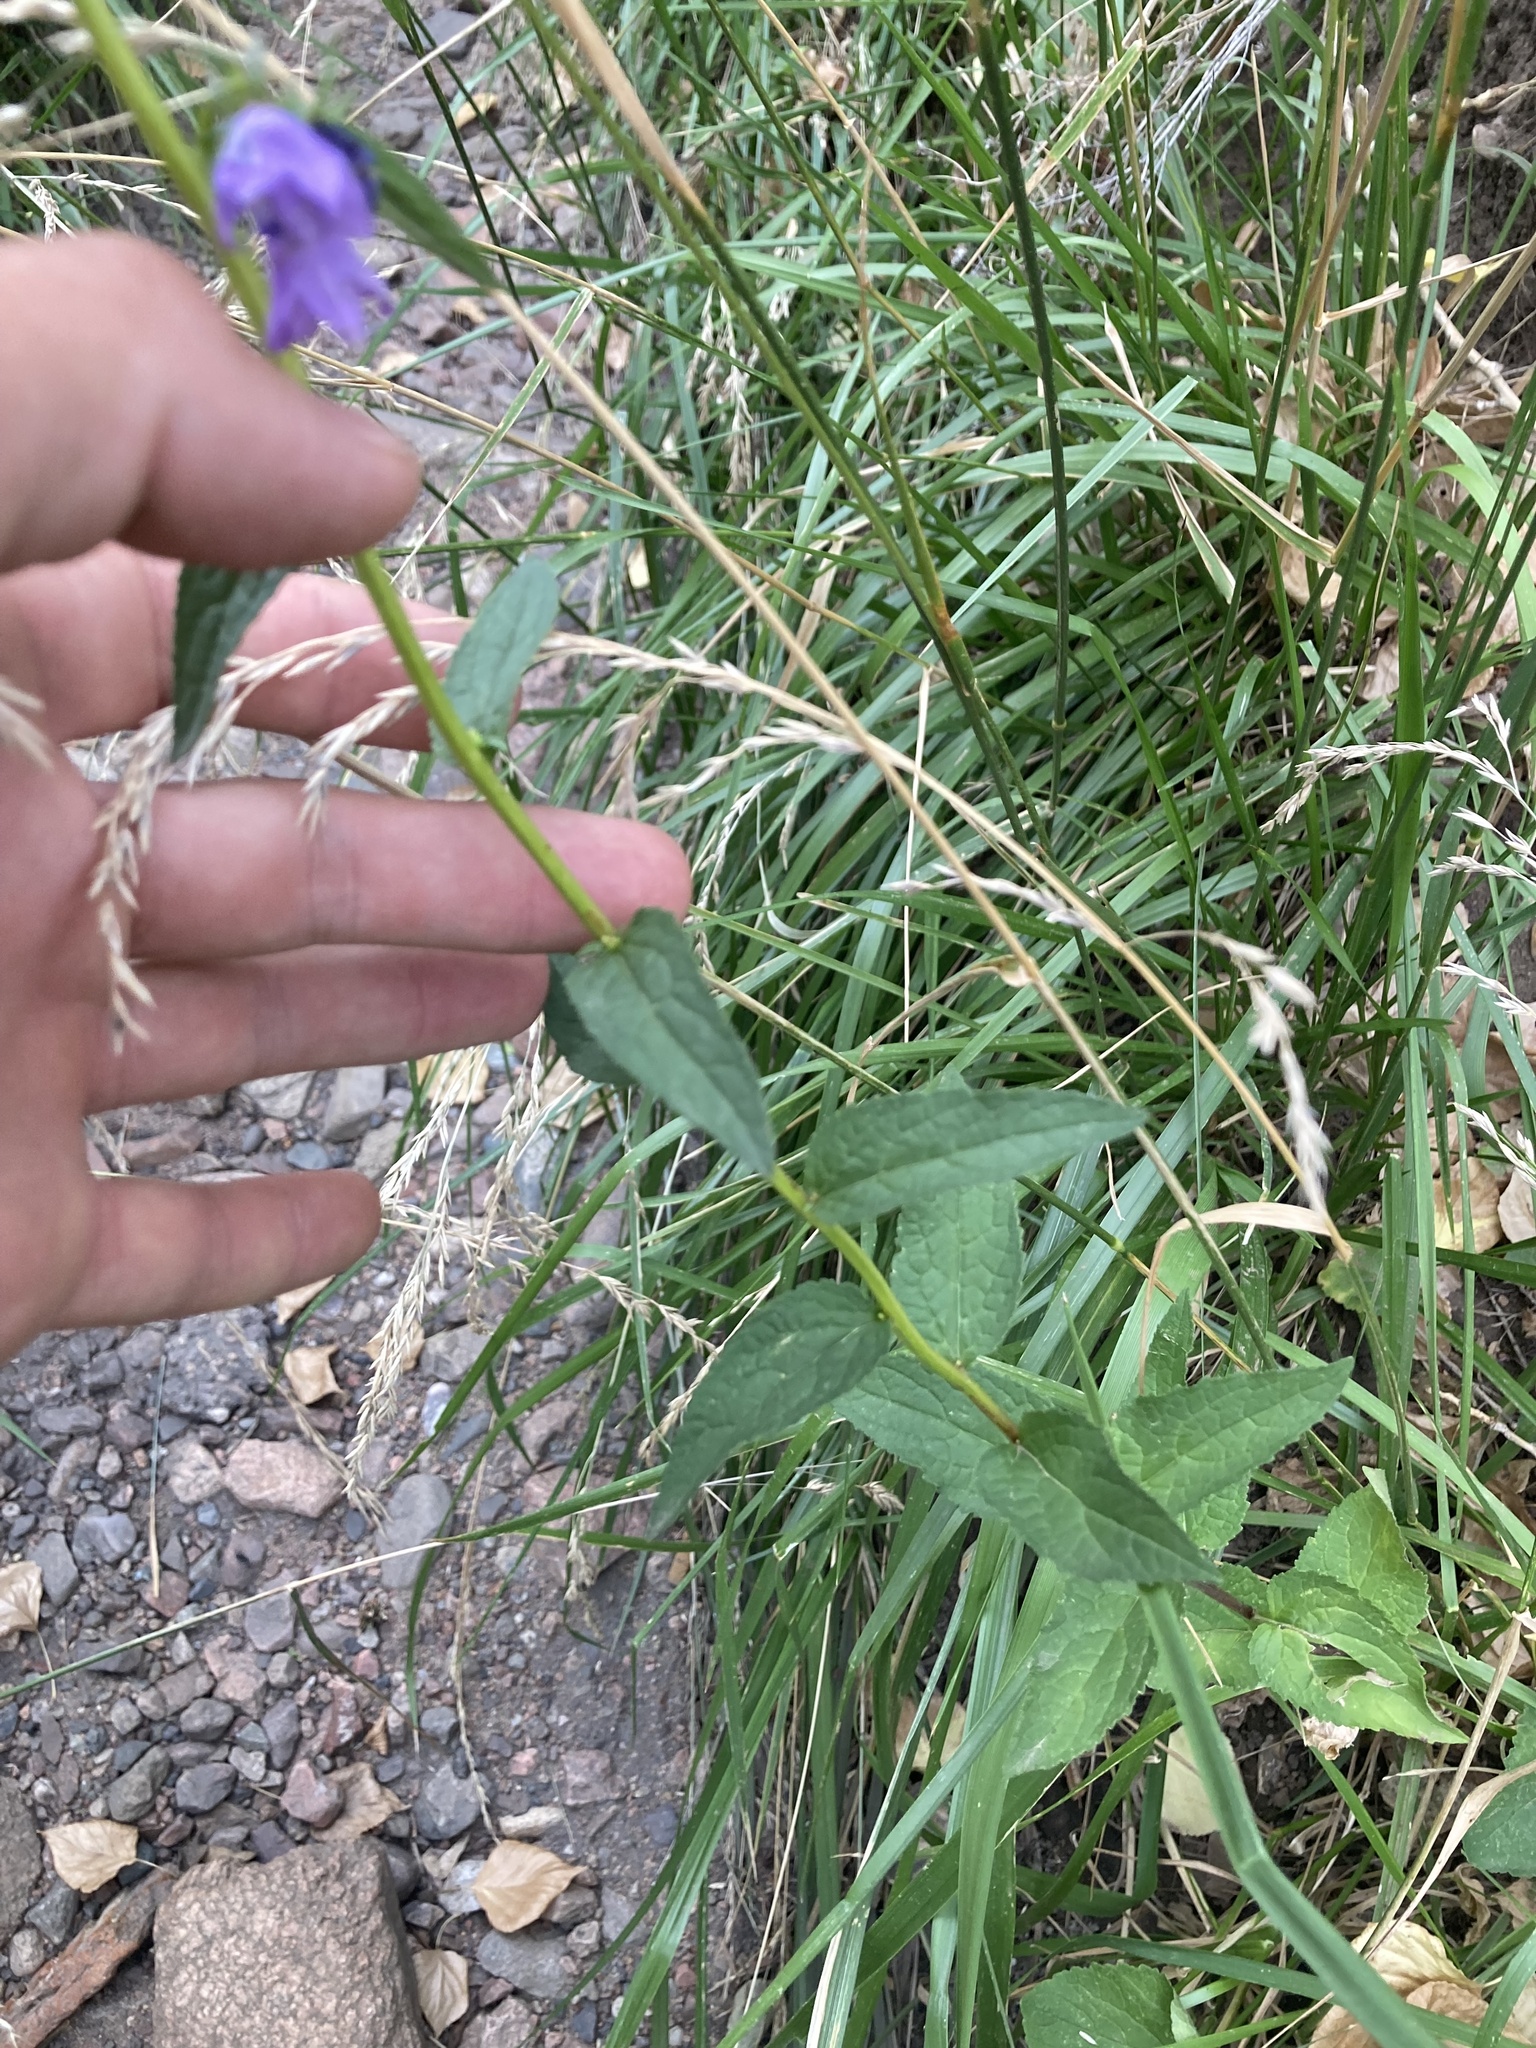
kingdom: Plantae
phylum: Tracheophyta
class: Magnoliopsida
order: Asterales
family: Campanulaceae
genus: Campanula
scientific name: Campanula rapunculoides
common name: Creeping bellflower
